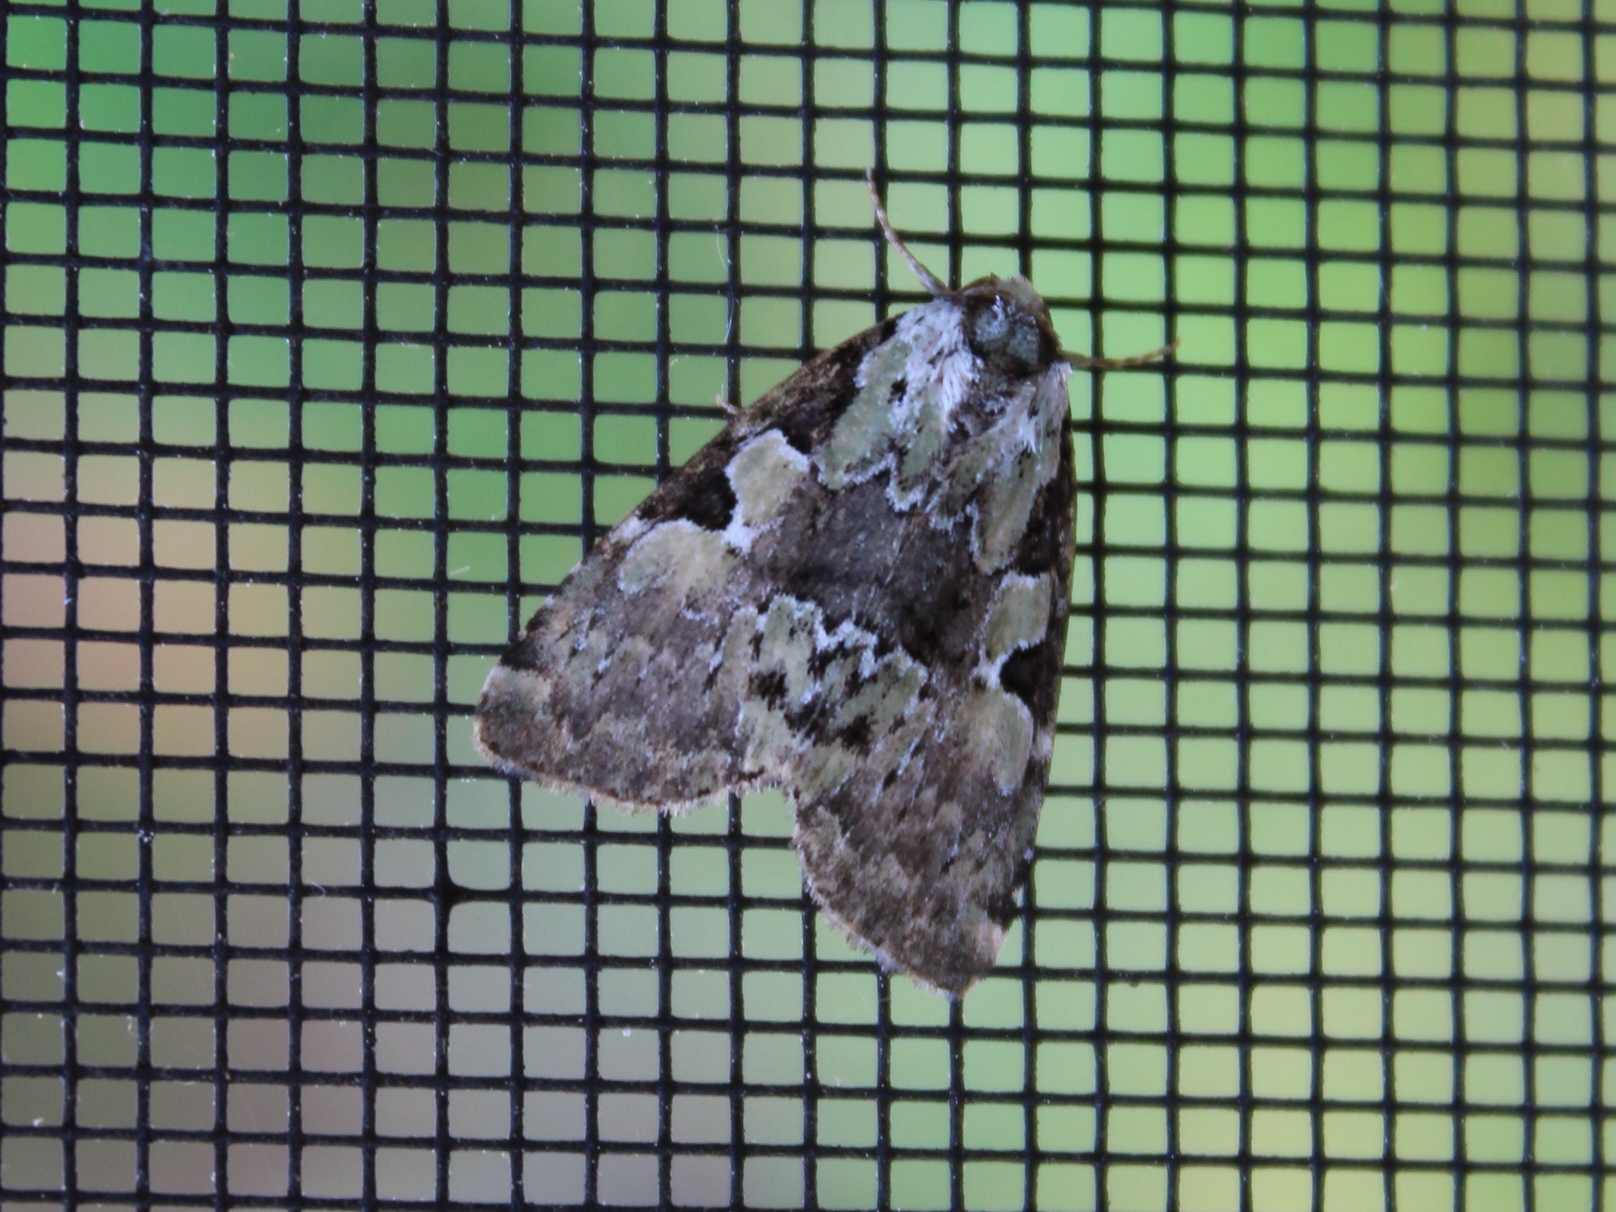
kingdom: Animalia
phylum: Arthropoda
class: Insecta
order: Lepidoptera
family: Noctuidae
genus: Leuconycta
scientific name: Leuconycta lepidula
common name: Marbled-green leuconycta moth
